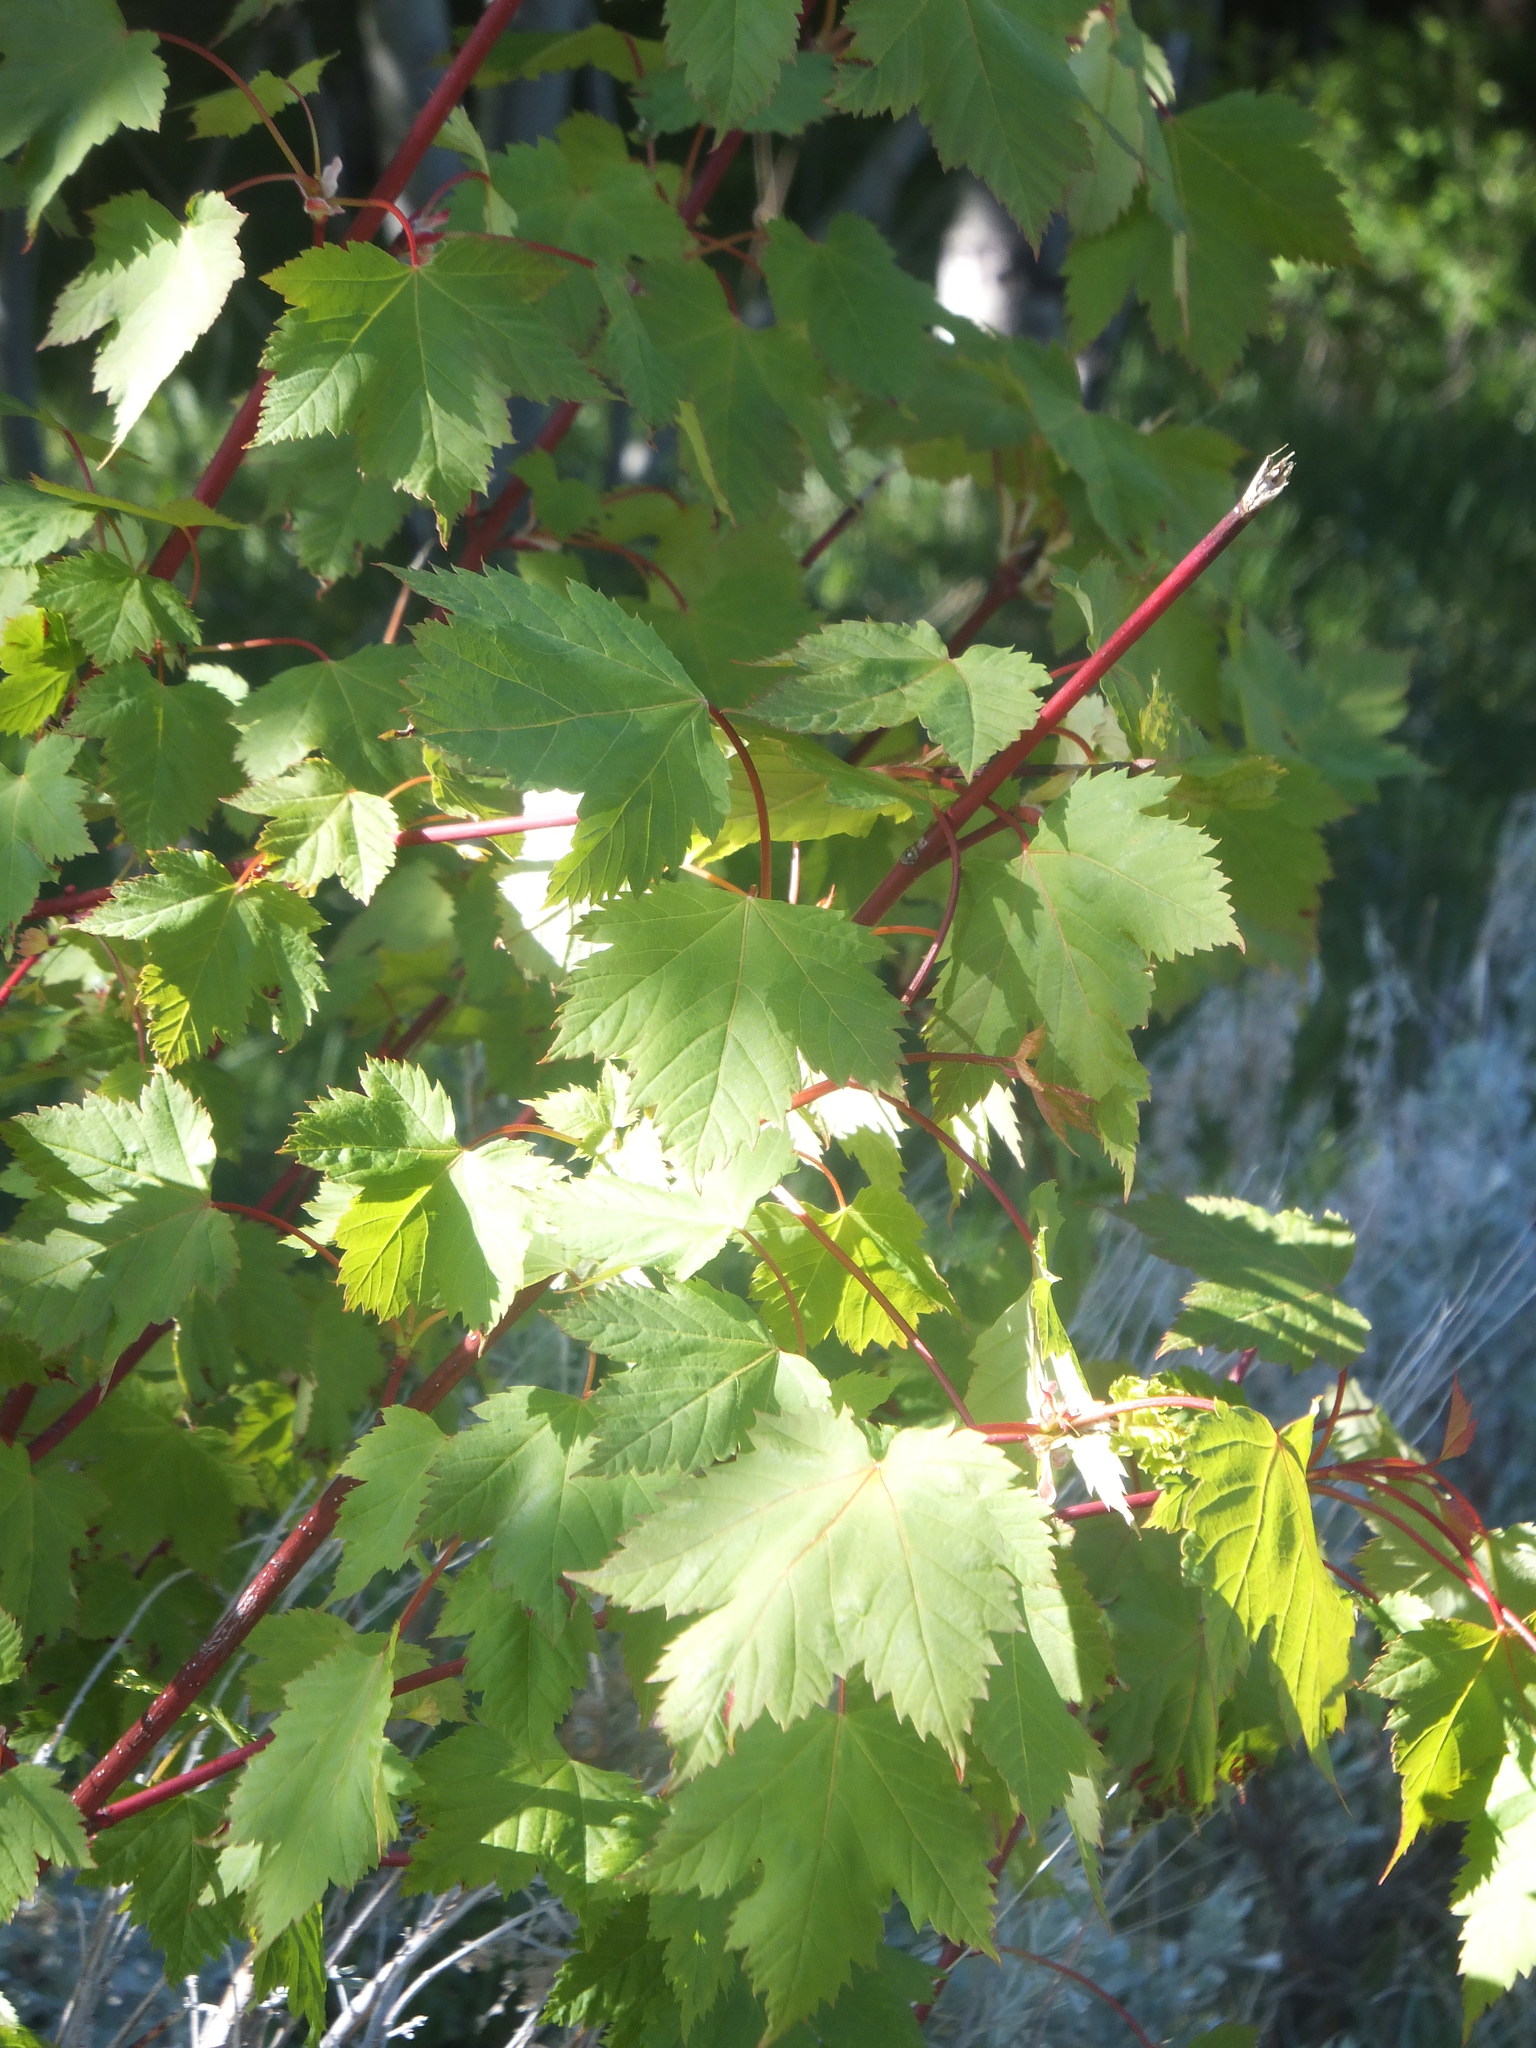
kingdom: Plantae
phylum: Tracheophyta
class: Magnoliopsida
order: Sapindales
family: Sapindaceae
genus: Acer
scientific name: Acer glabrum
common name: Rocky mountain maple
